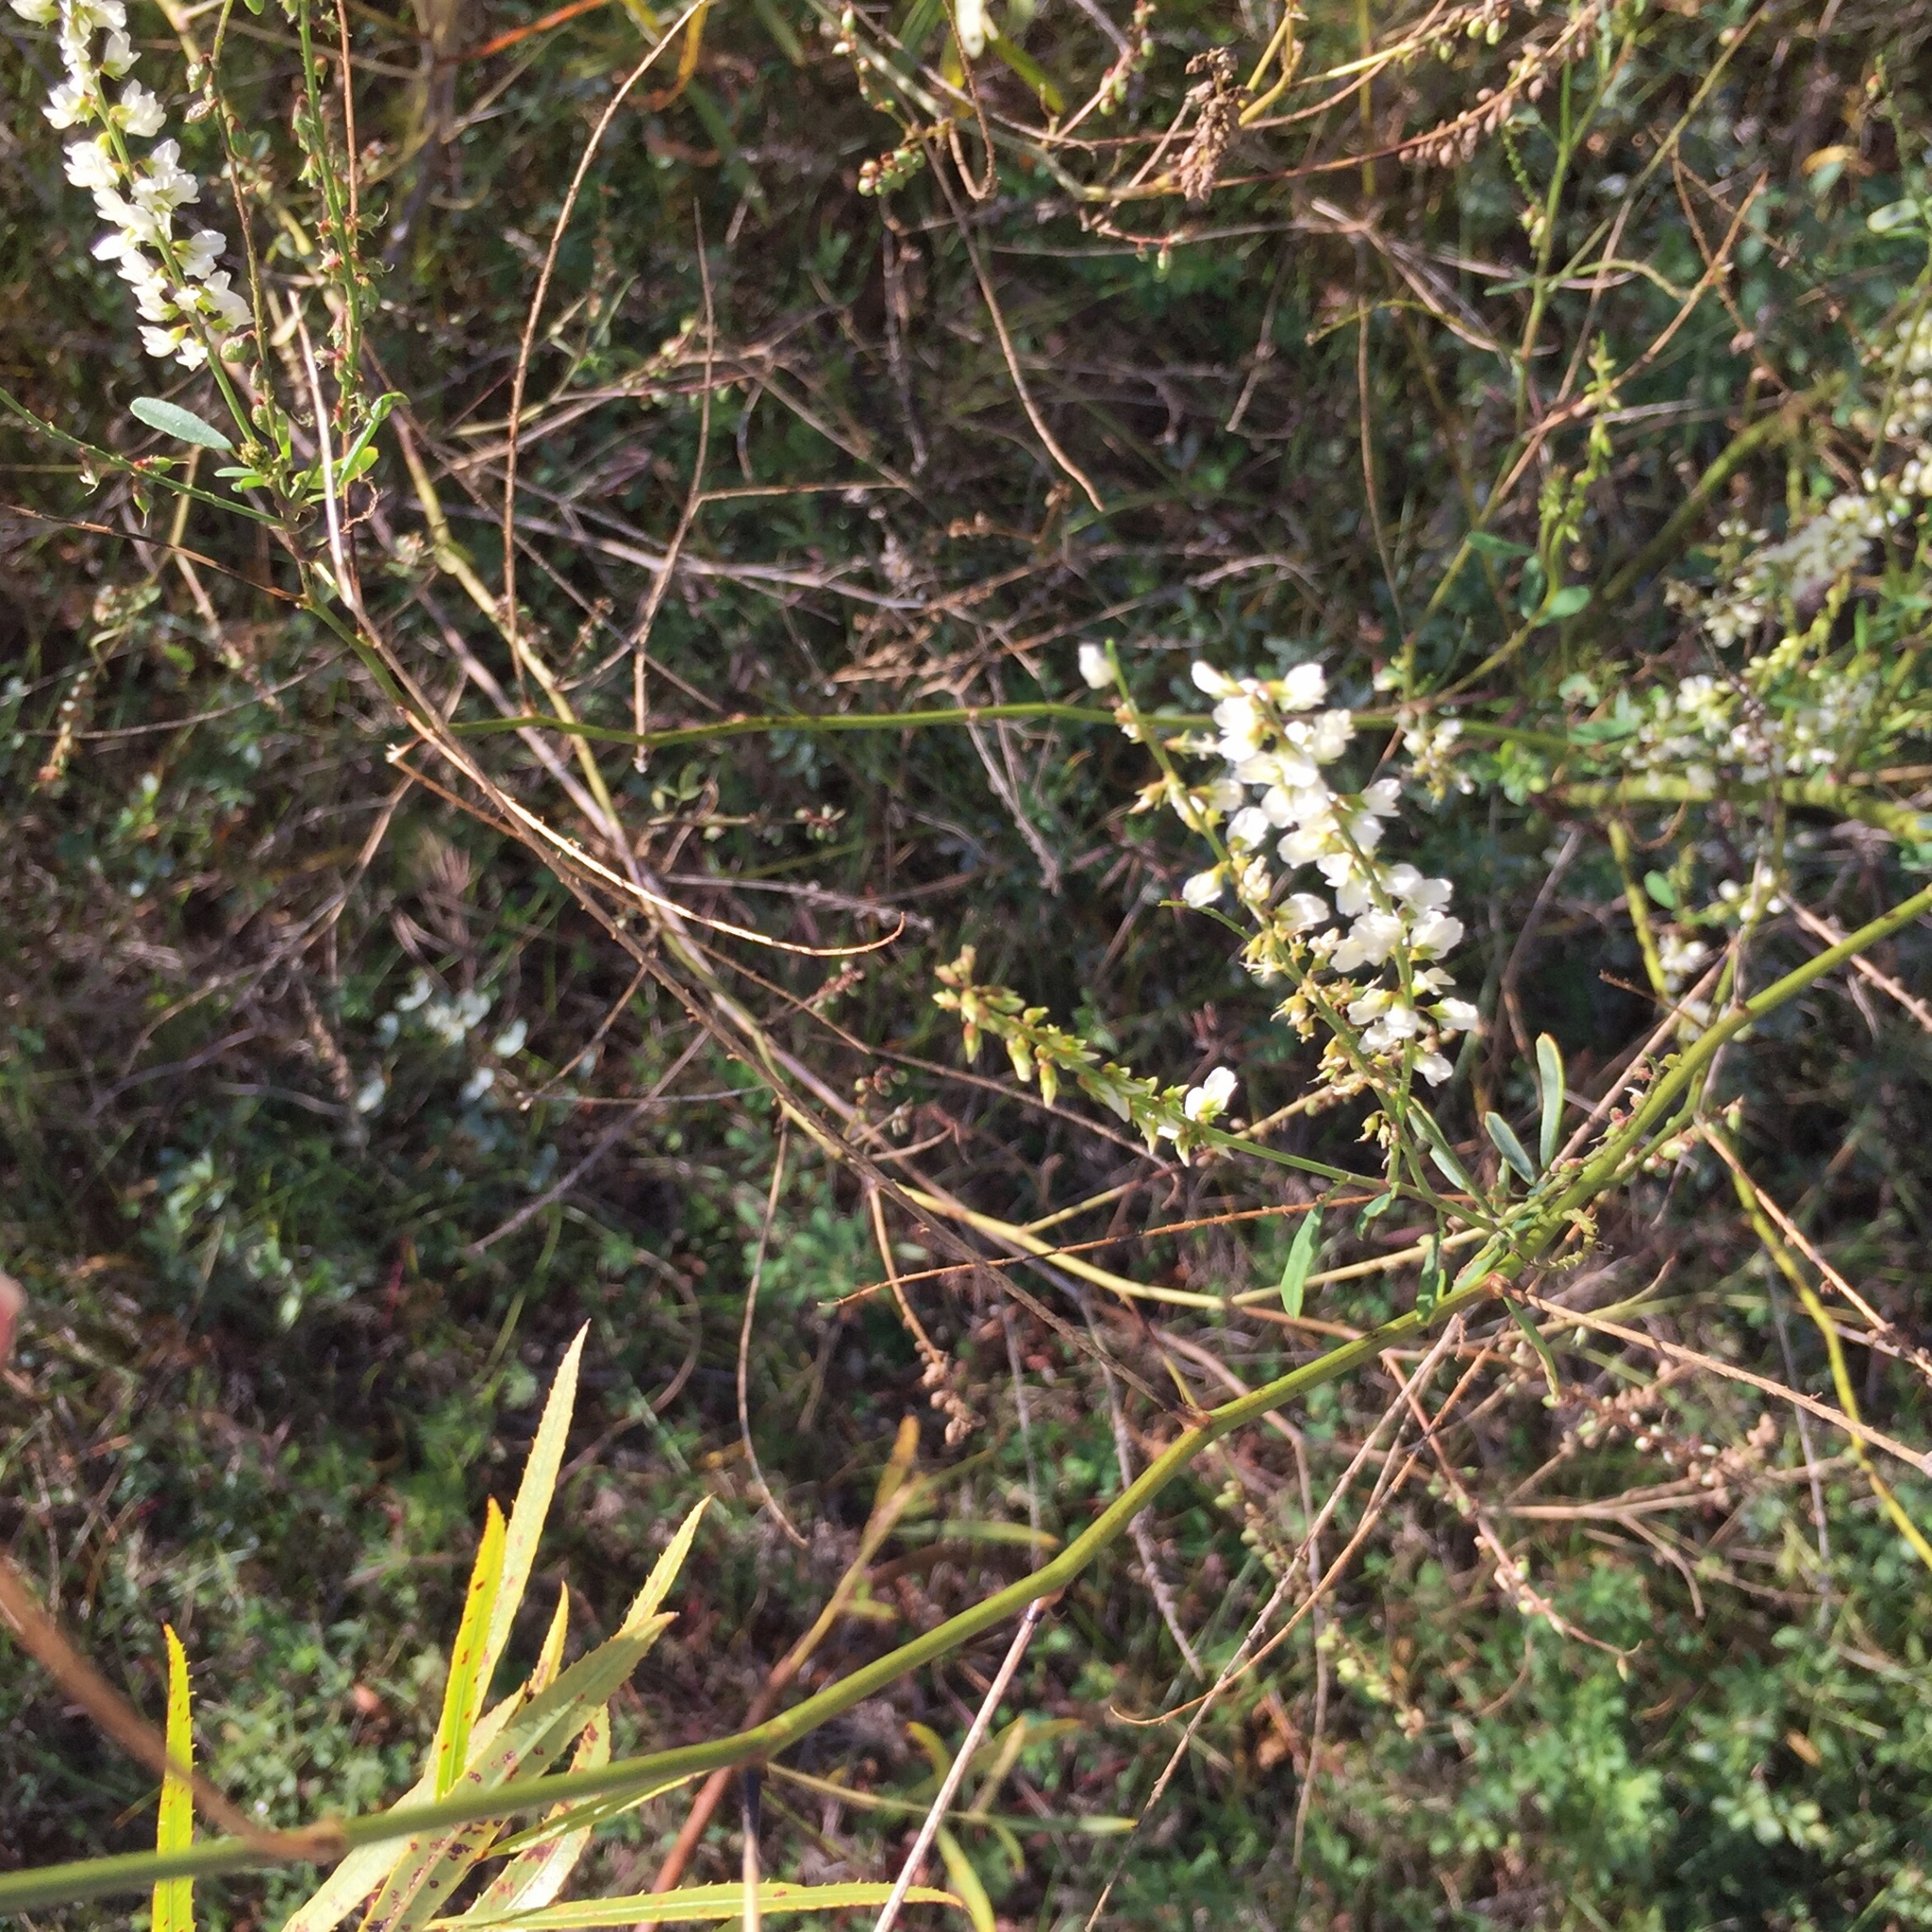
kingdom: Plantae
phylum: Tracheophyta
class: Magnoliopsida
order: Fabales
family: Fabaceae
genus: Melilotus
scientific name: Melilotus albus
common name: White melilot
